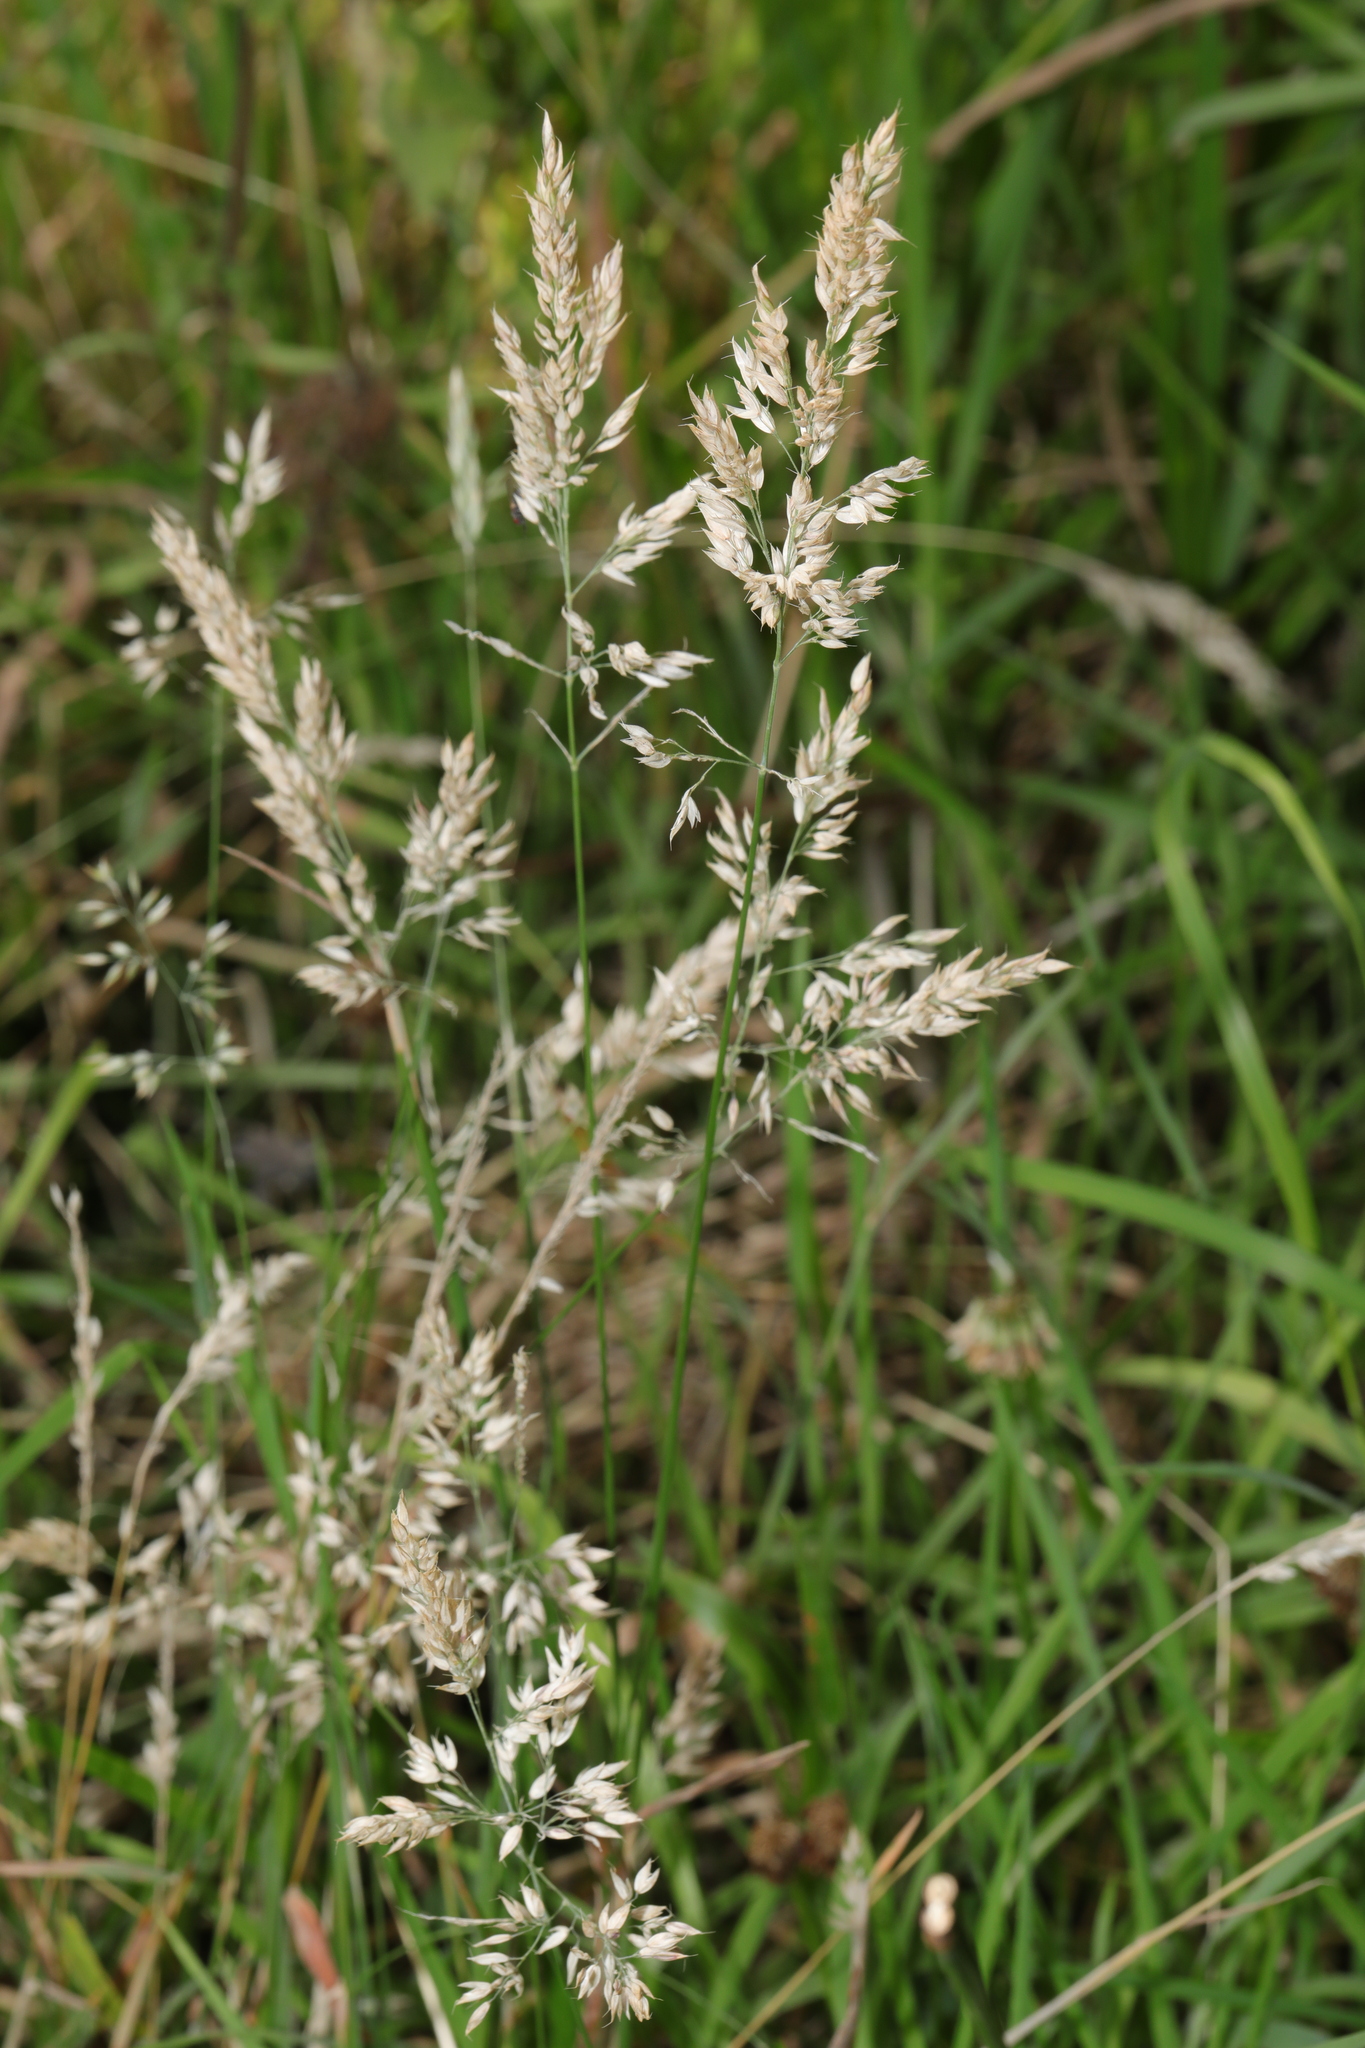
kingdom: Plantae
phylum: Tracheophyta
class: Liliopsida
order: Poales
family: Poaceae
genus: Holcus
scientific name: Holcus mollis
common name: Creeping velvetgrass
